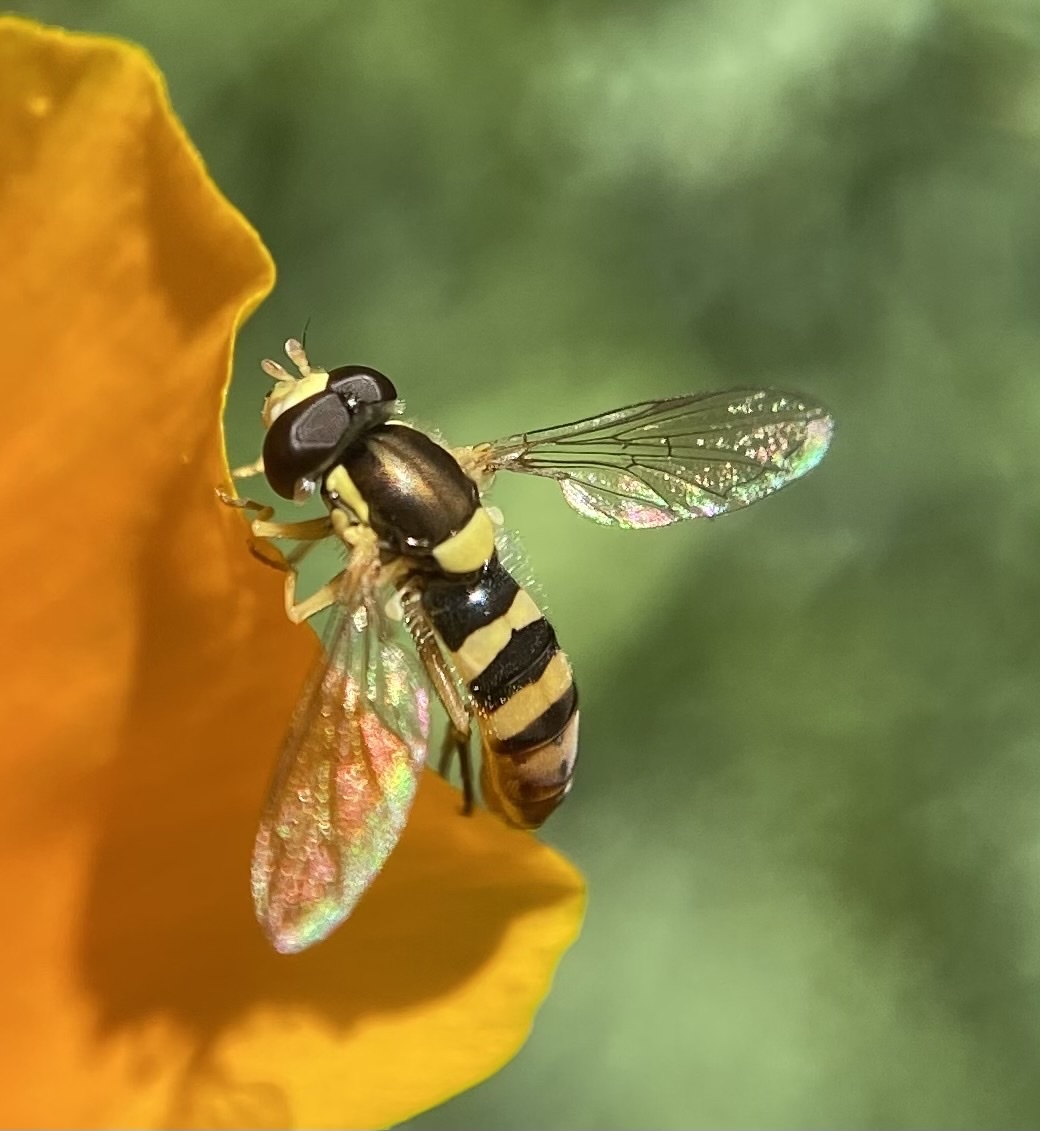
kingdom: Animalia
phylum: Arthropoda
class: Insecta
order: Diptera
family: Syrphidae
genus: Sphaerophoria
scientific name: Sphaerophoria sulphuripes
